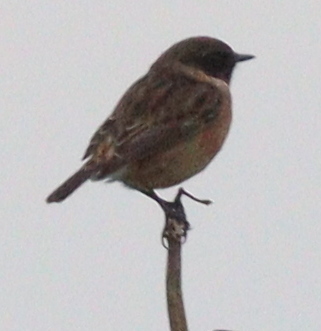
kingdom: Animalia
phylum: Chordata
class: Aves
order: Passeriformes
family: Muscicapidae
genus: Saxicola
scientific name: Saxicola rubicola
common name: European stonechat
